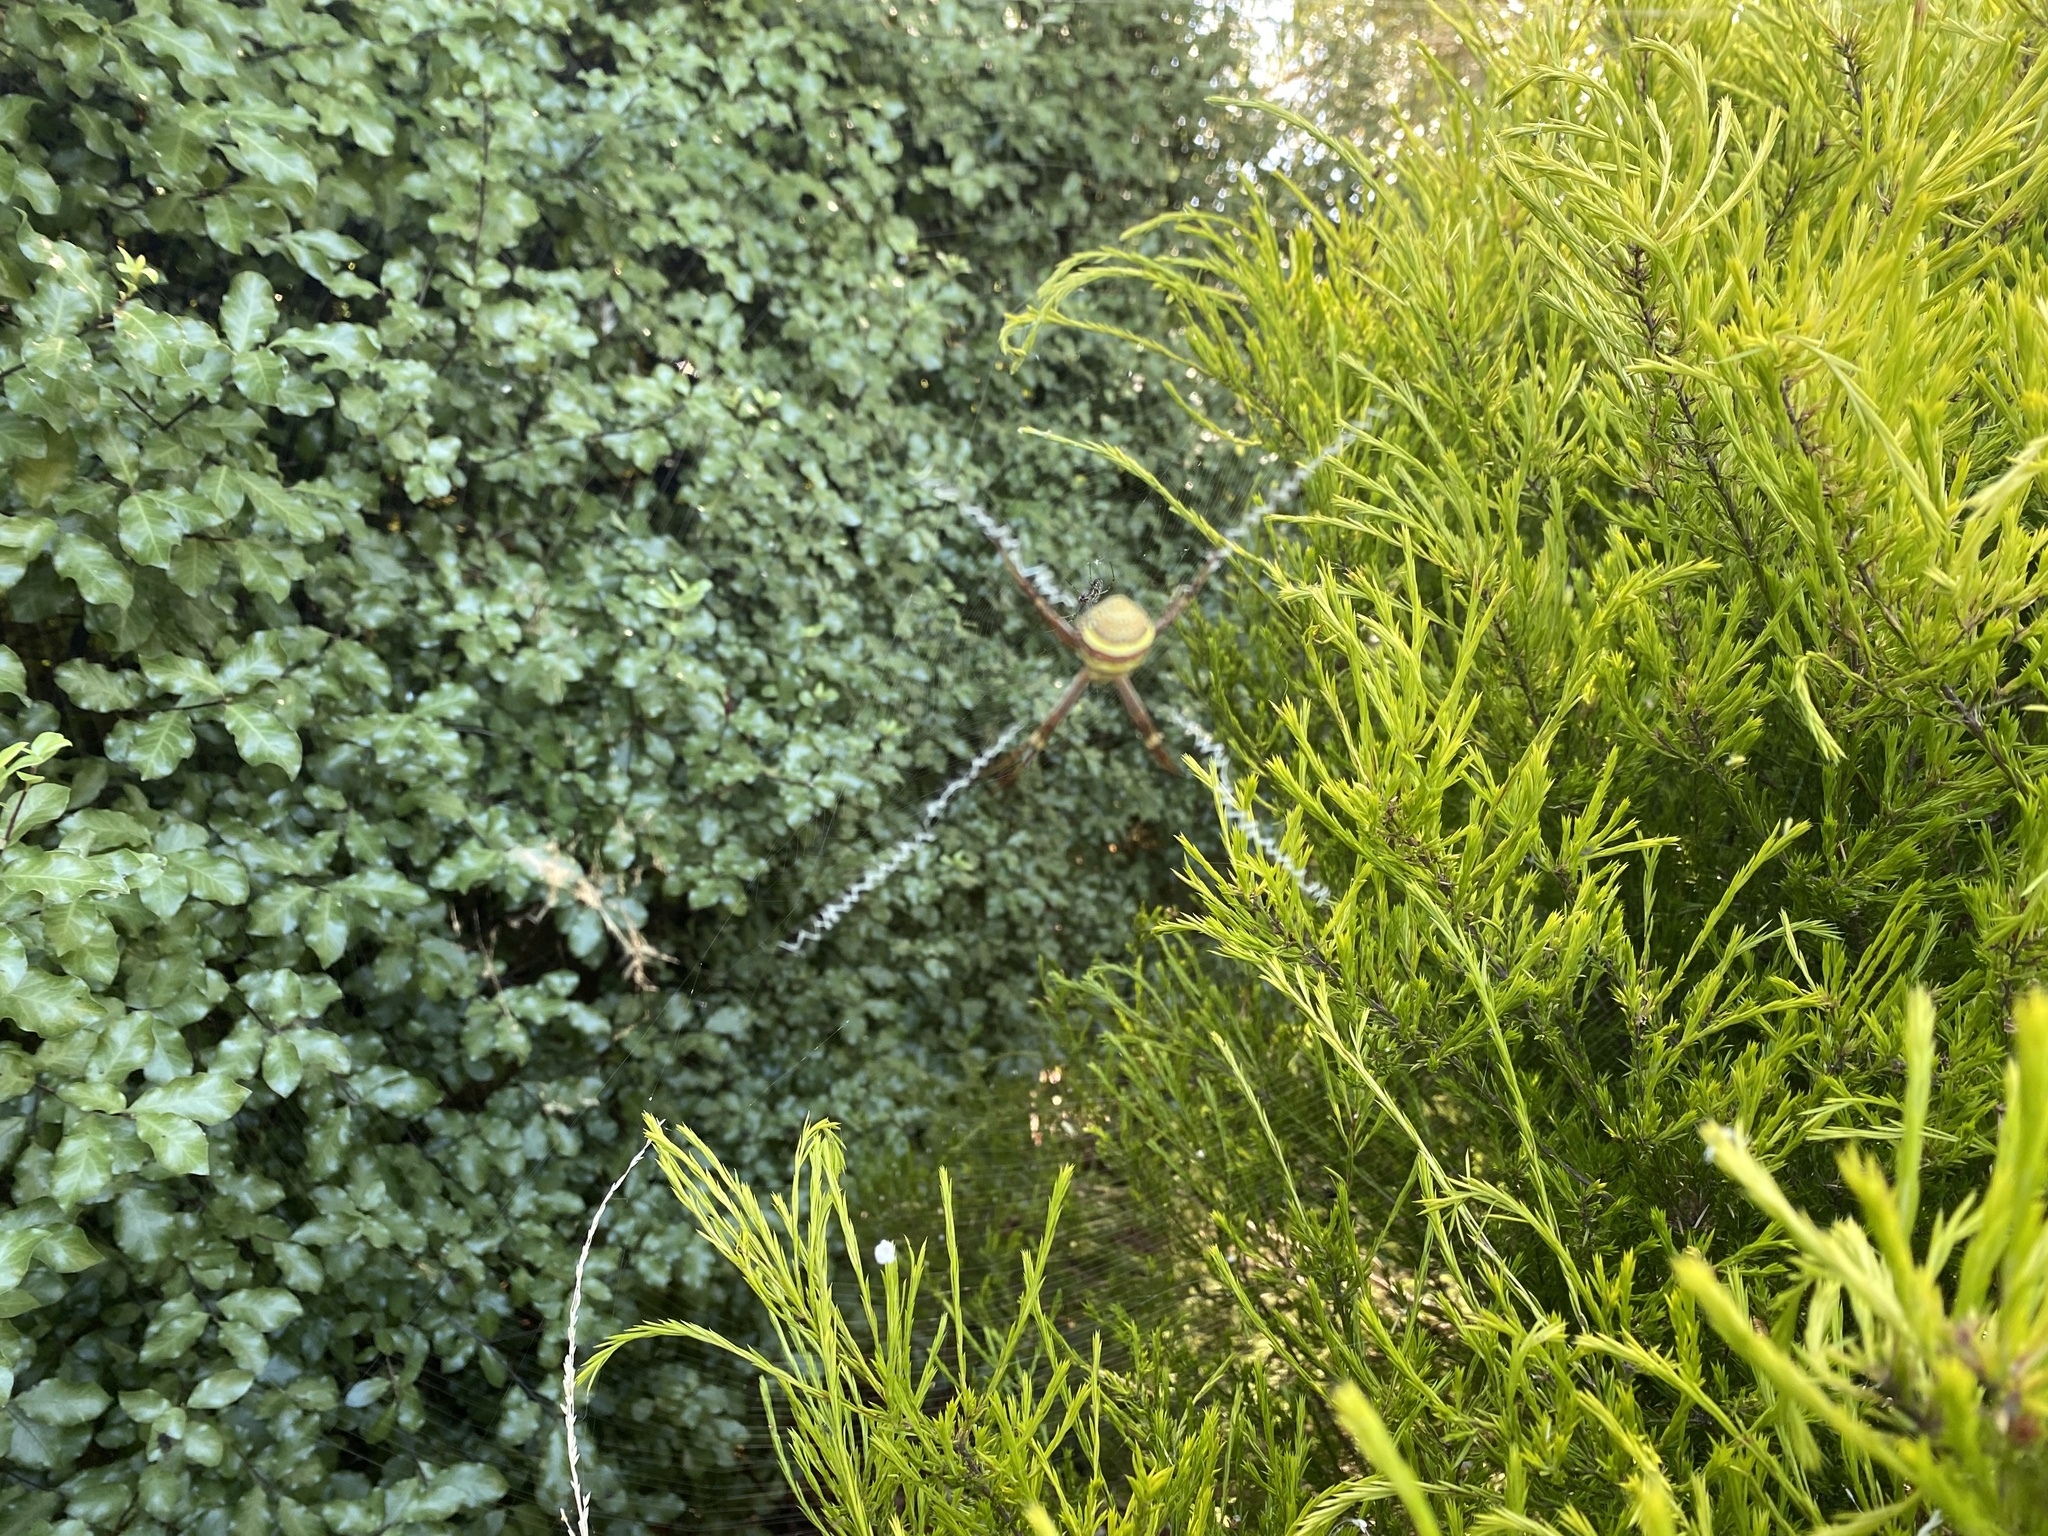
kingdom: Animalia
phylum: Arthropoda
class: Arachnida
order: Araneae
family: Araneidae
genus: Argiope
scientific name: Argiope keyserlingi
